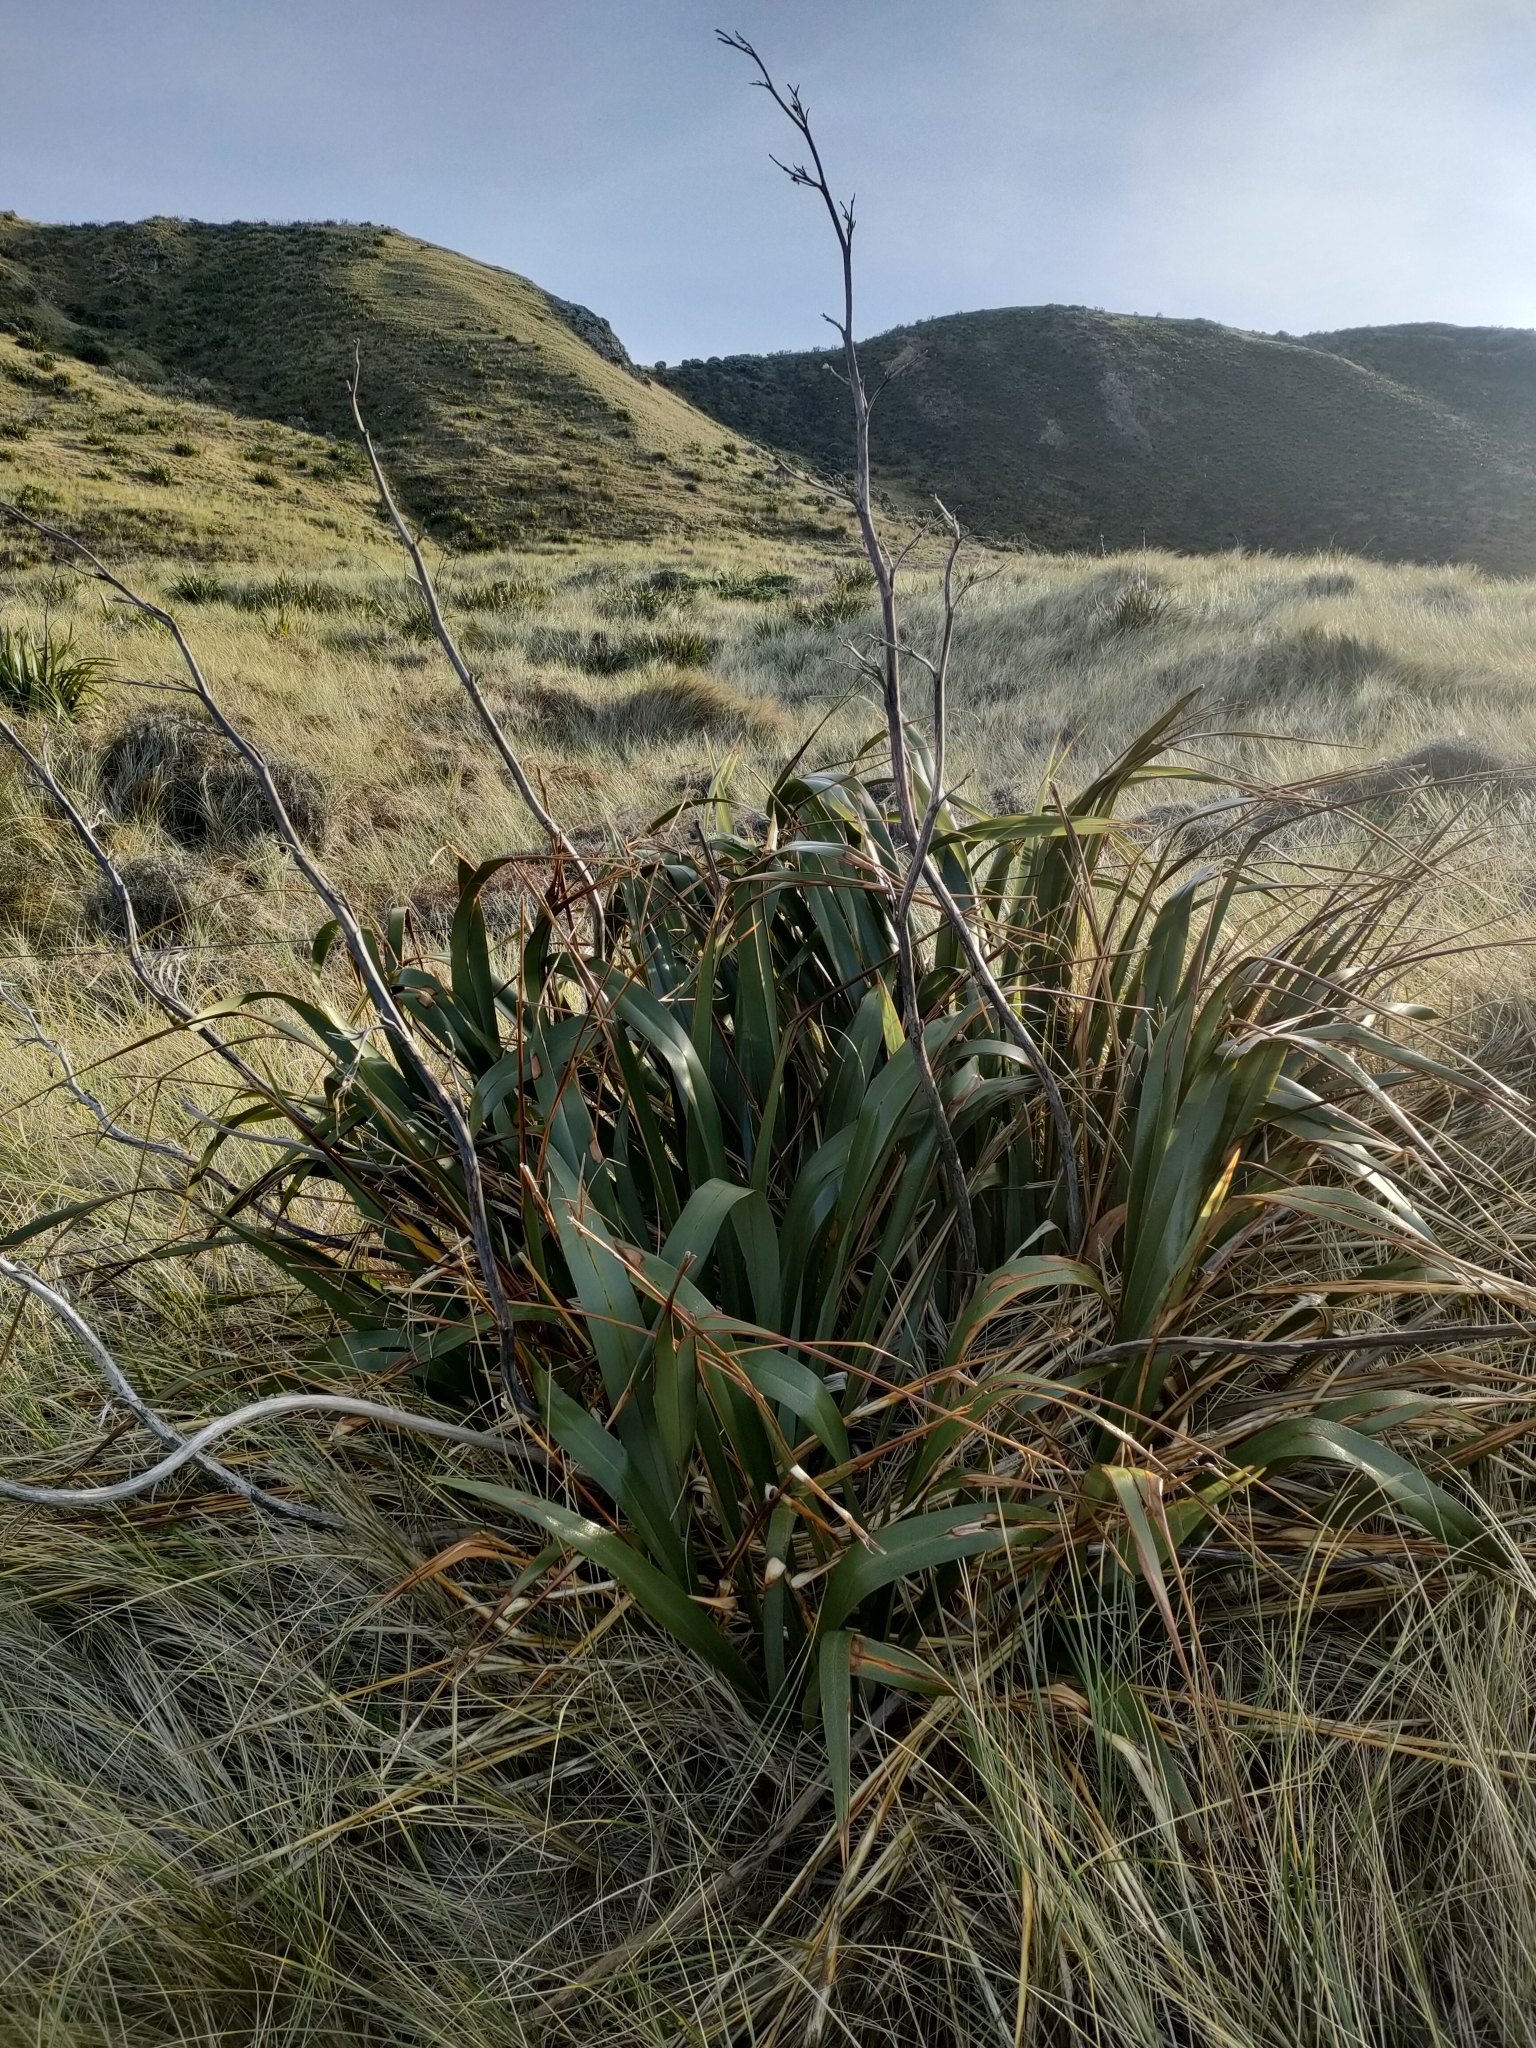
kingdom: Plantae
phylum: Tracheophyta
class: Liliopsida
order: Asparagales
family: Asphodelaceae
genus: Phormium
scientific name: Phormium tenax
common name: New zealand flax
